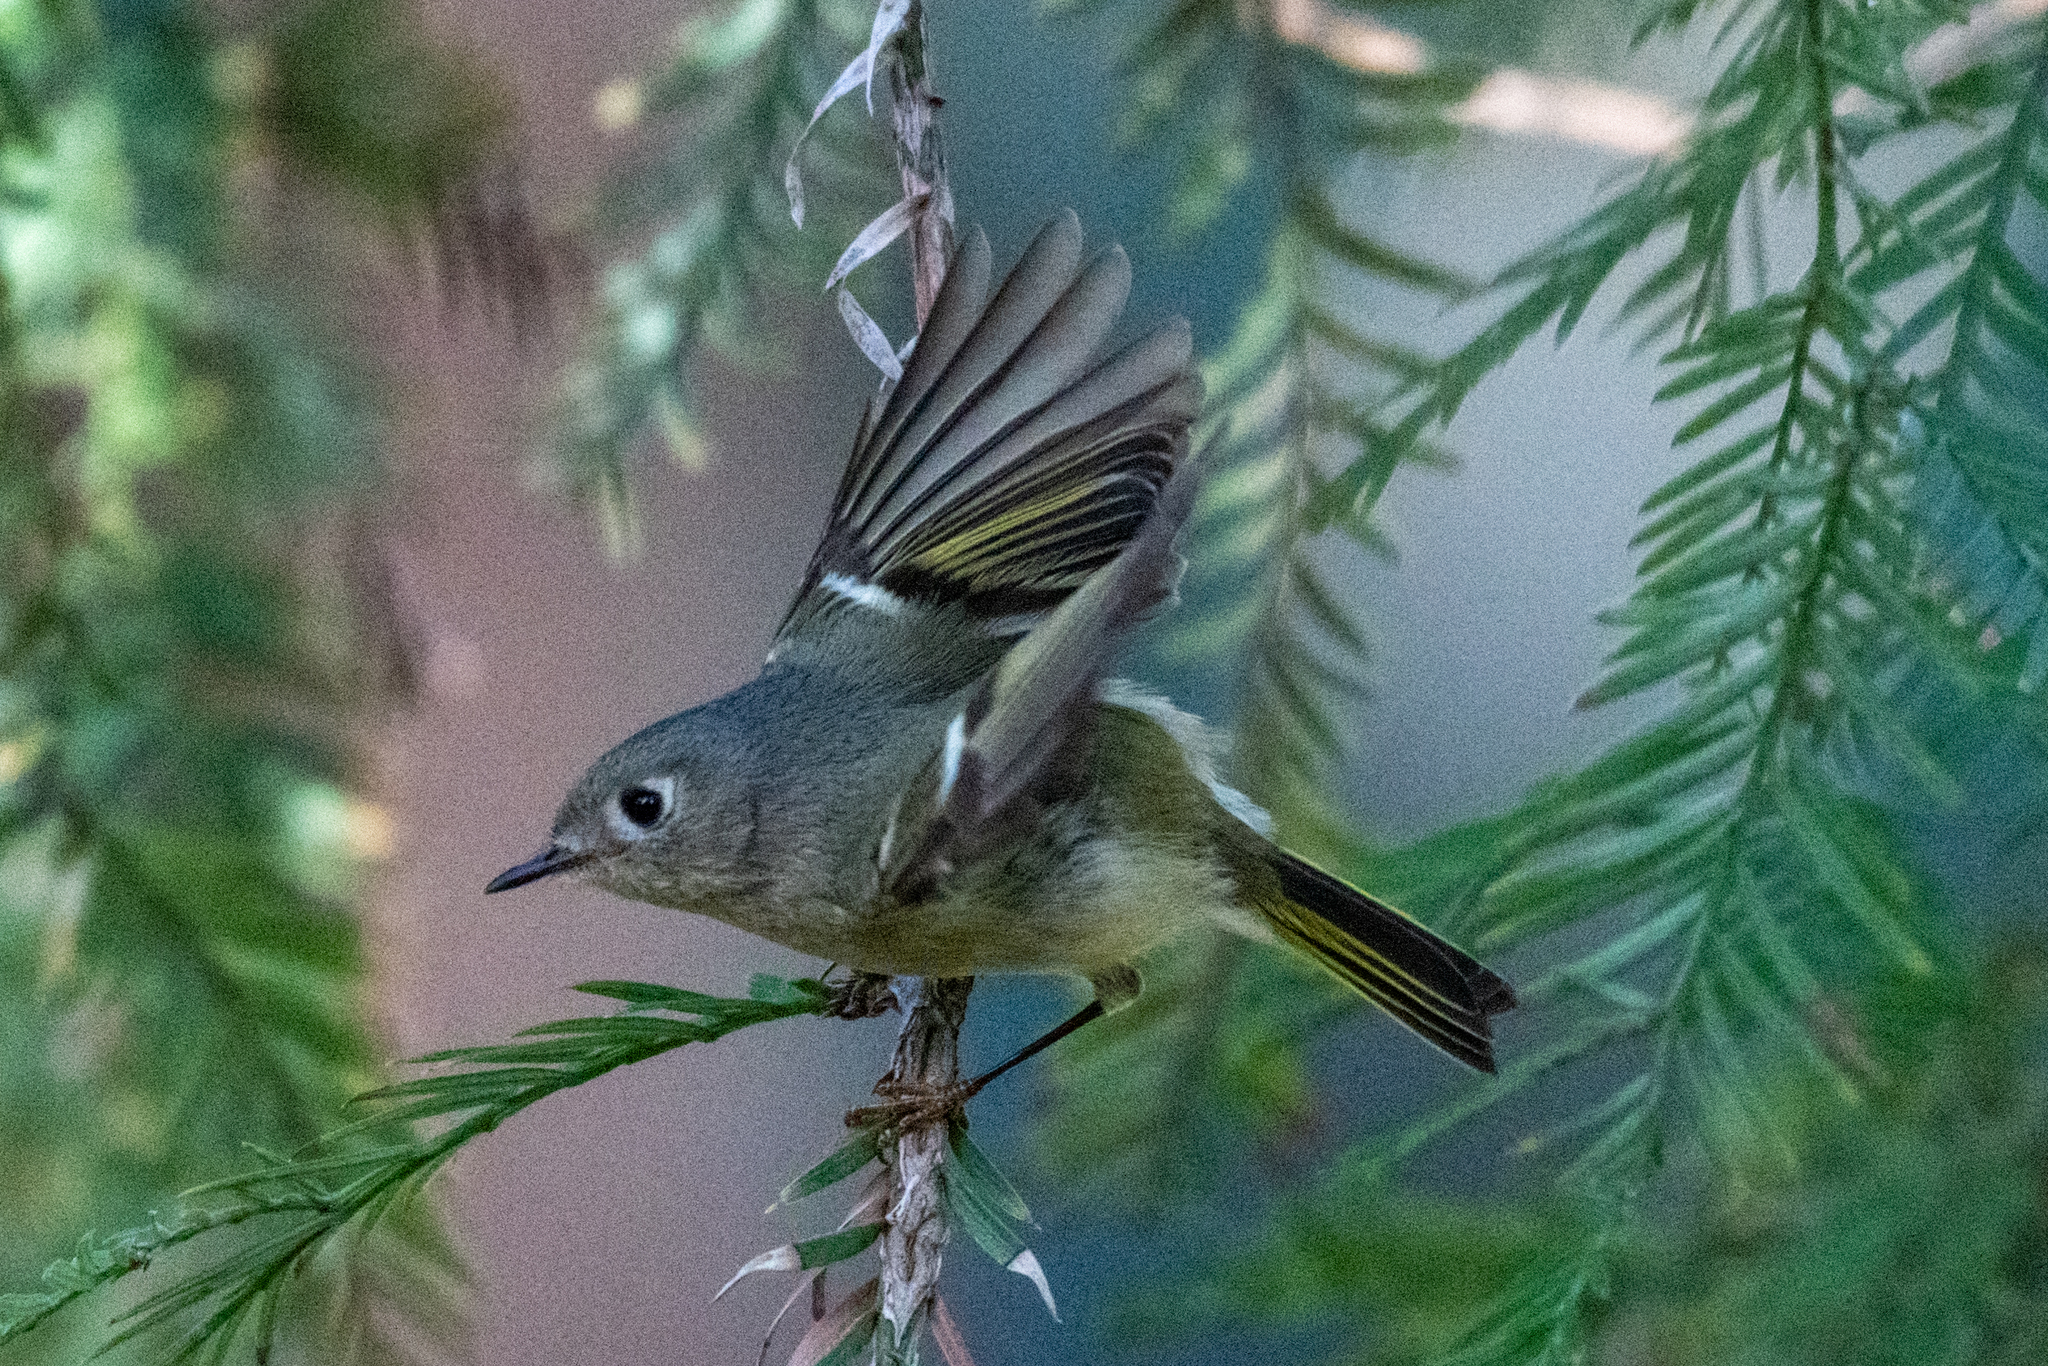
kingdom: Animalia
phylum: Chordata
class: Aves
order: Passeriformes
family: Regulidae
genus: Regulus
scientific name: Regulus calendula
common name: Ruby-crowned kinglet
